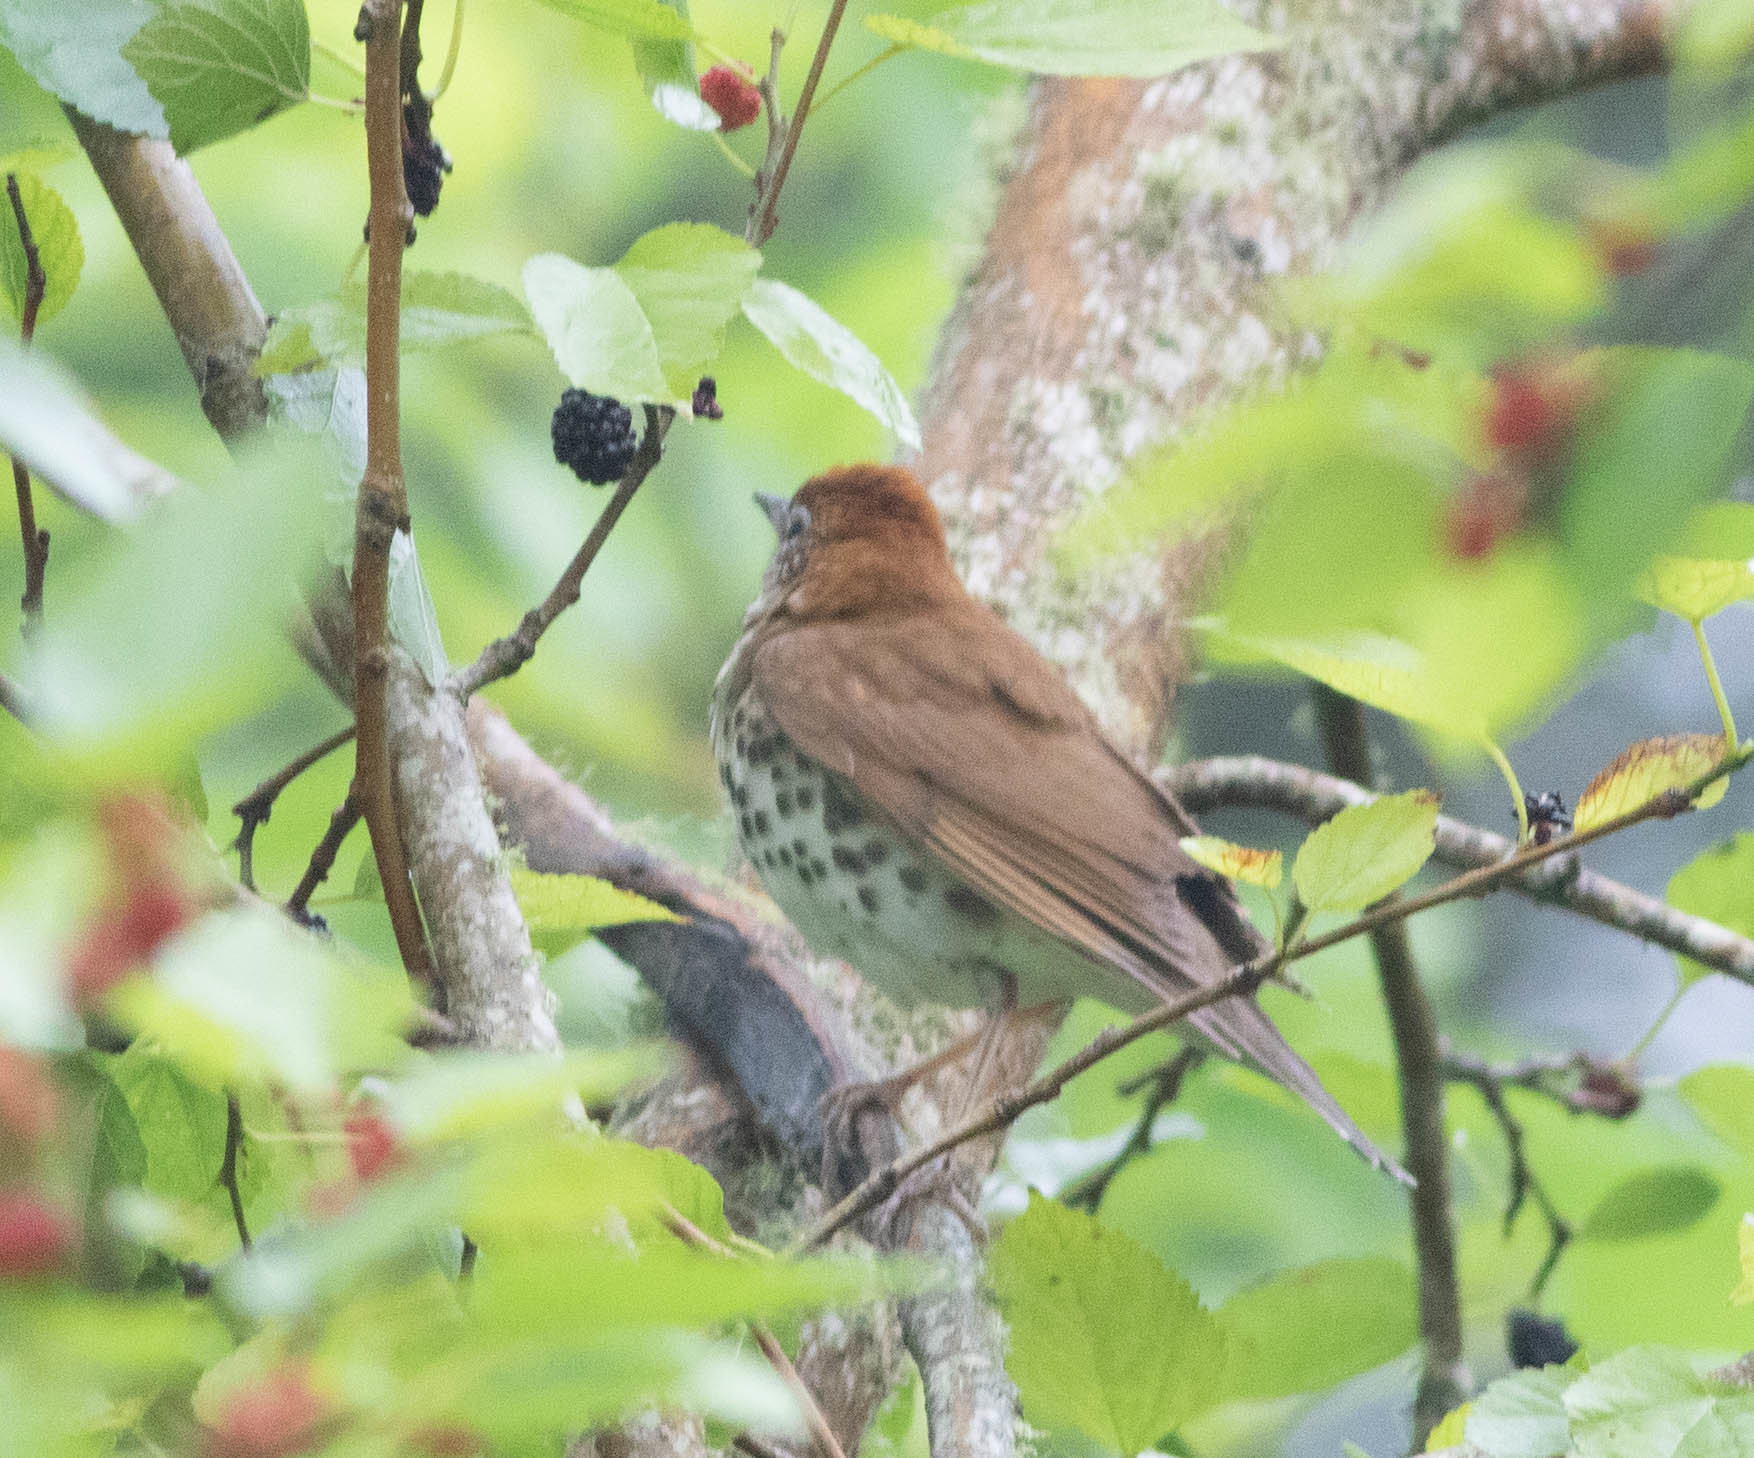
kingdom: Animalia
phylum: Chordata
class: Aves
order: Passeriformes
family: Turdidae
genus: Hylocichla
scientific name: Hylocichla mustelina
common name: Wood thrush
